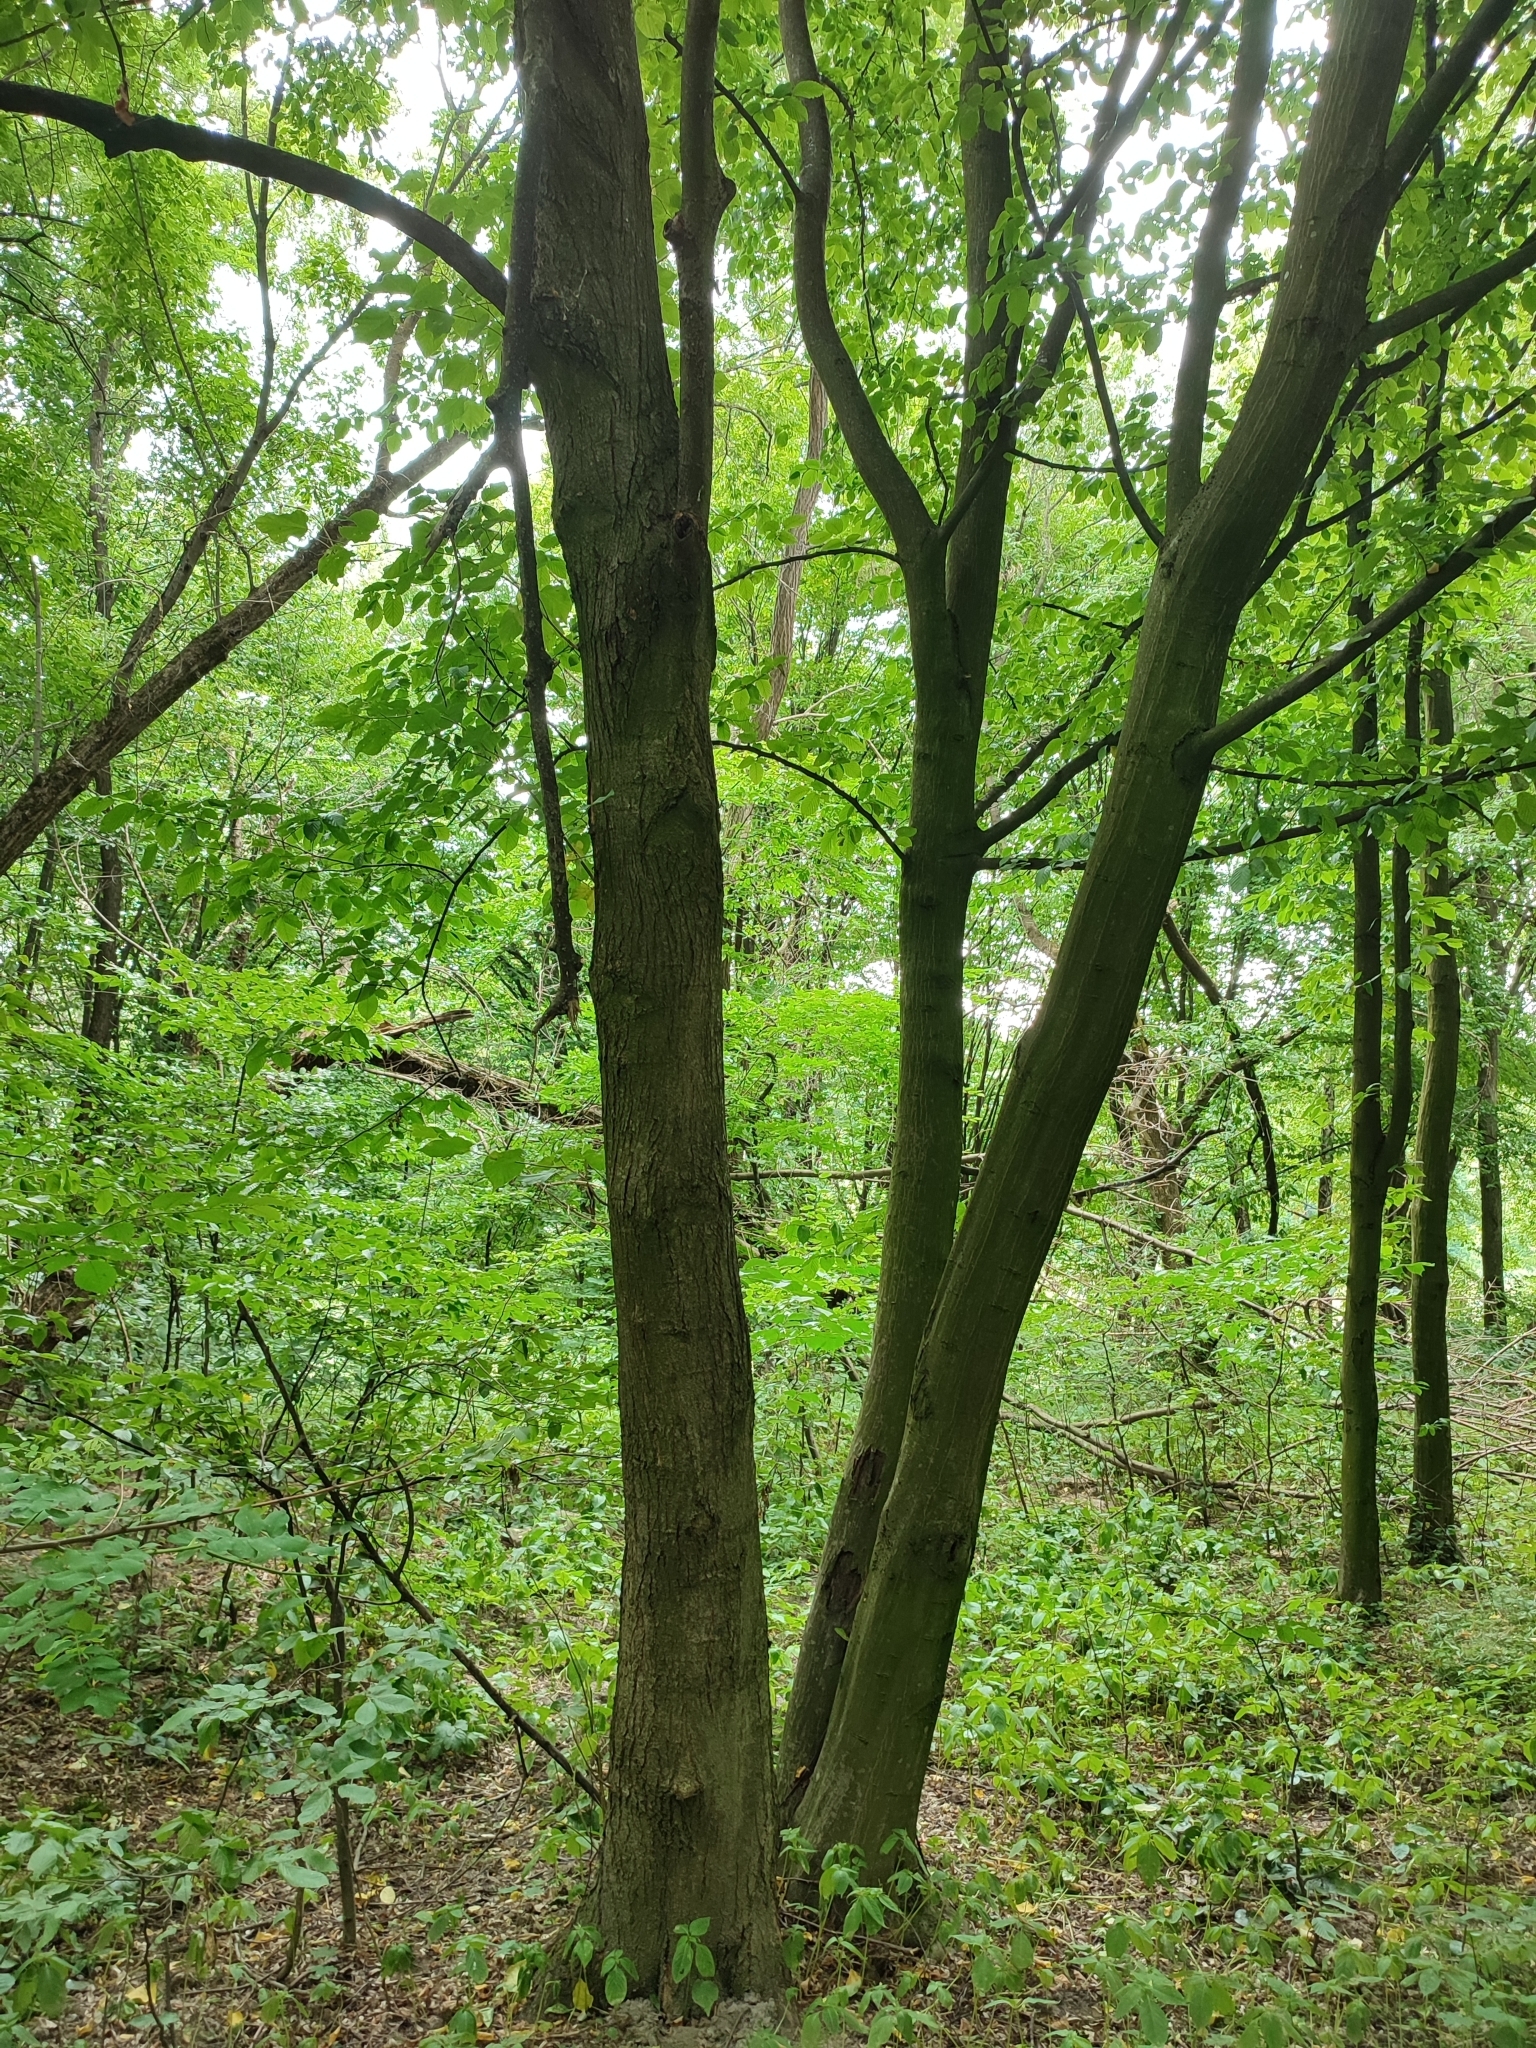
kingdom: Plantae
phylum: Tracheophyta
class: Magnoliopsida
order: Fagales
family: Betulaceae
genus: Carpinus
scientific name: Carpinus betulus
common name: Hornbeam
